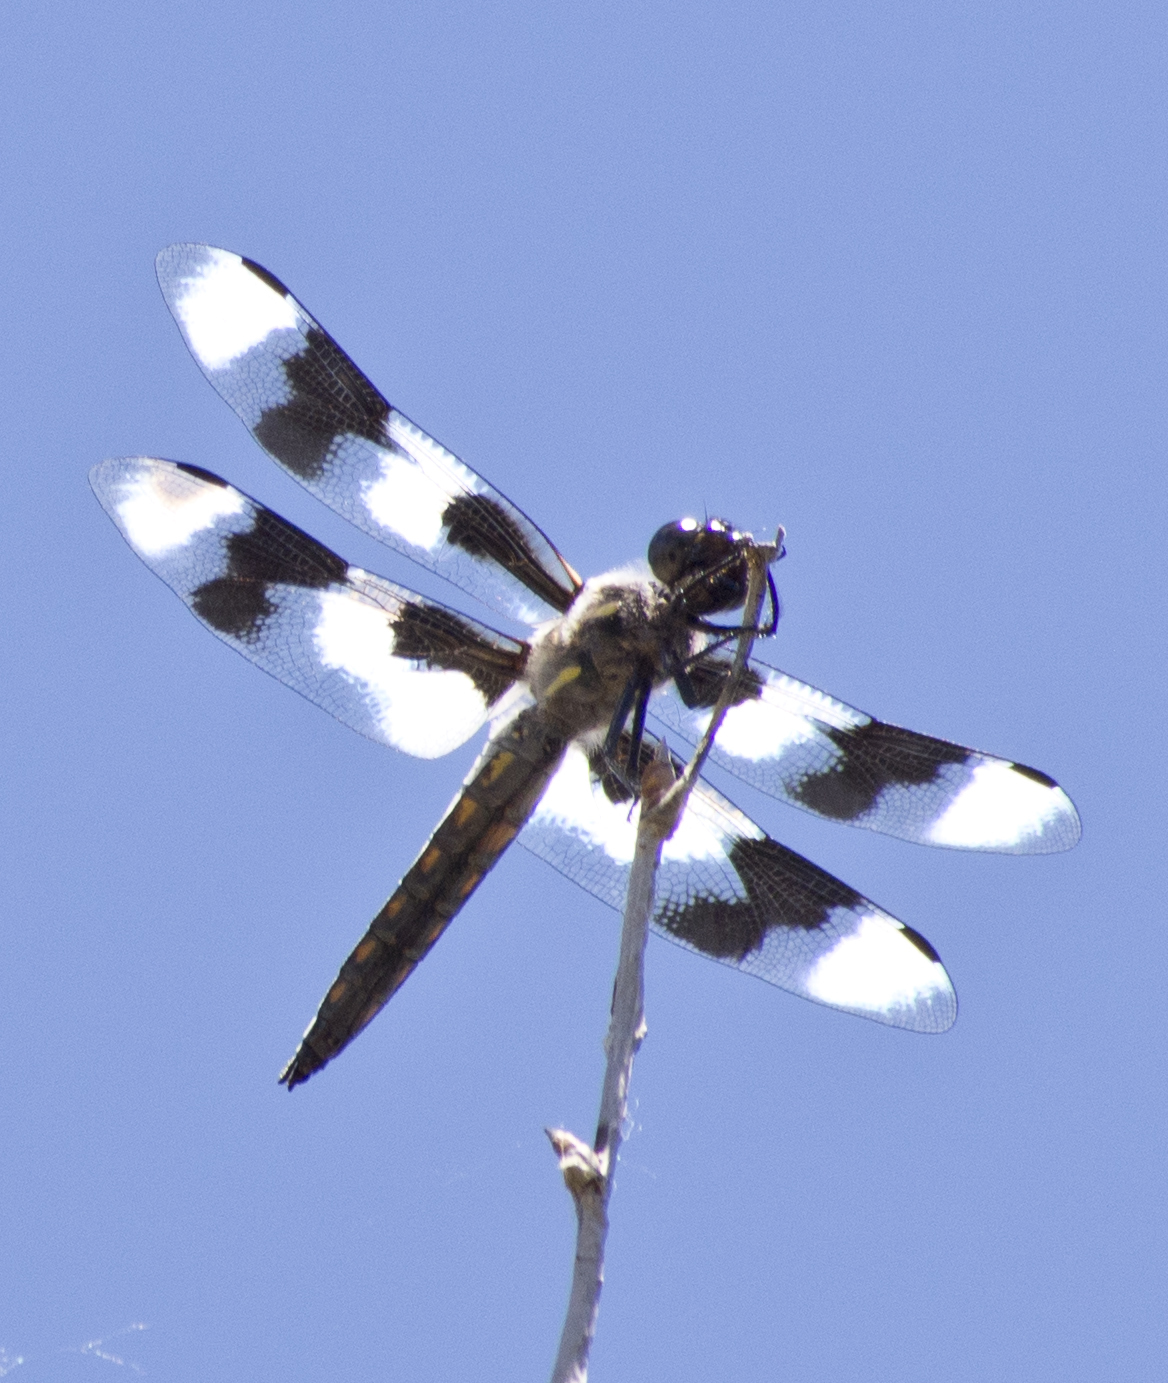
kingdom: Animalia
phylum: Arthropoda
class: Insecta
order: Odonata
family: Libellulidae
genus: Libellula
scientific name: Libellula forensis
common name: Eight-spotted skimmer
